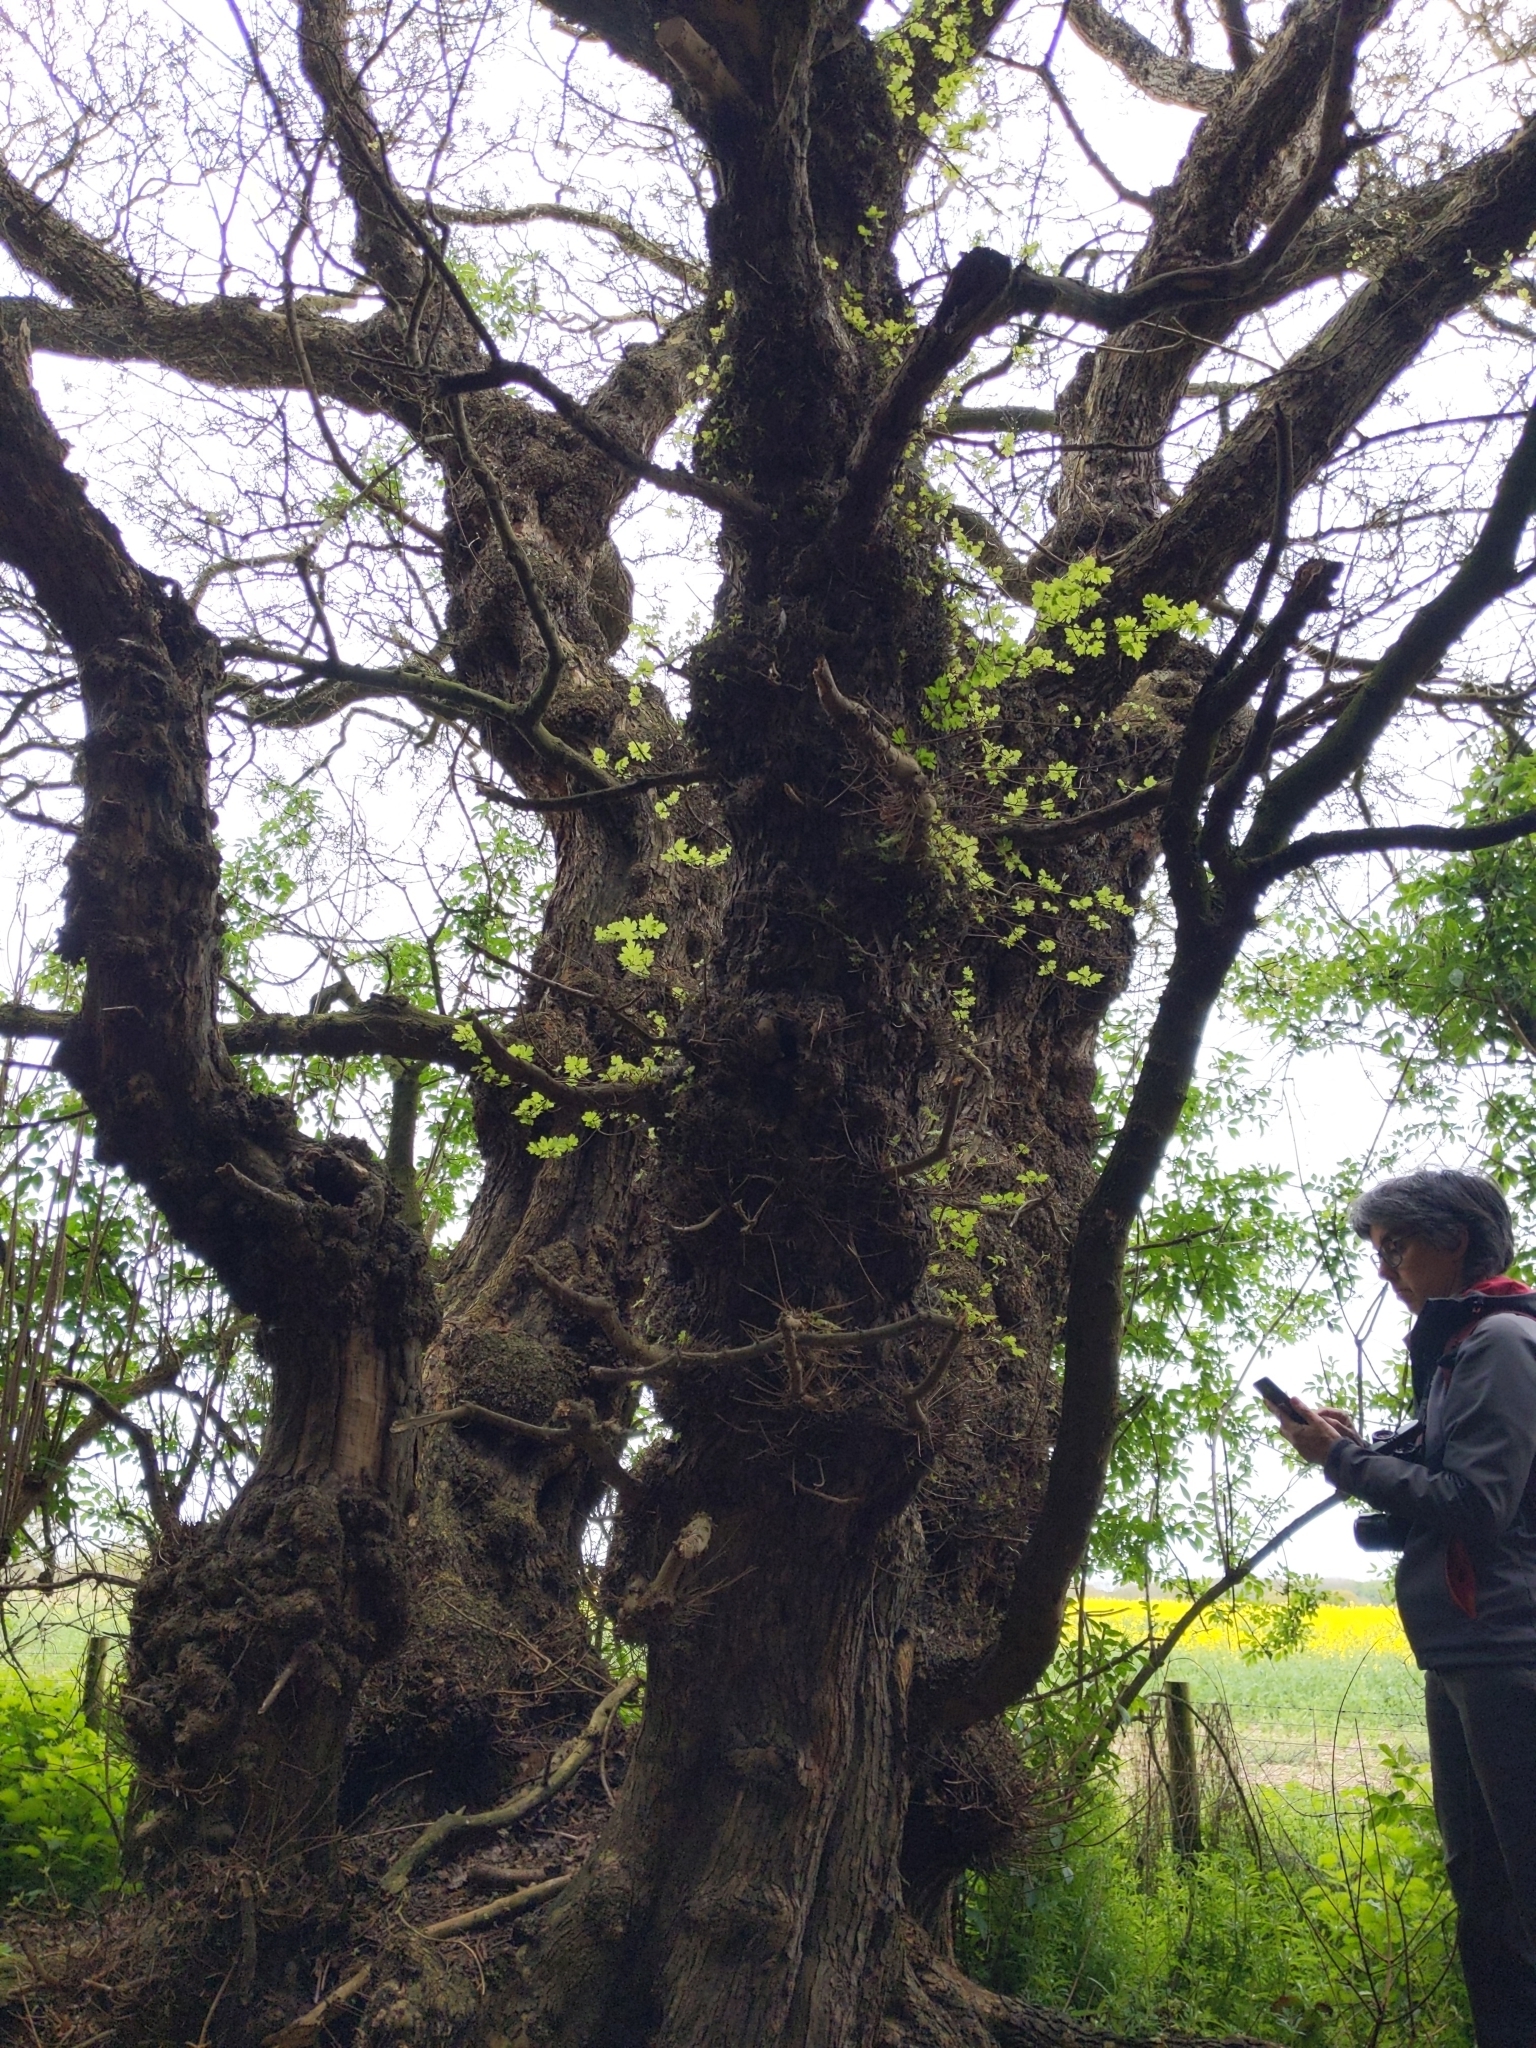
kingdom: Plantae
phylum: Tracheophyta
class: Magnoliopsida
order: Sapindales
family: Sapindaceae
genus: Acer
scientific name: Acer campestre
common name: Field maple
